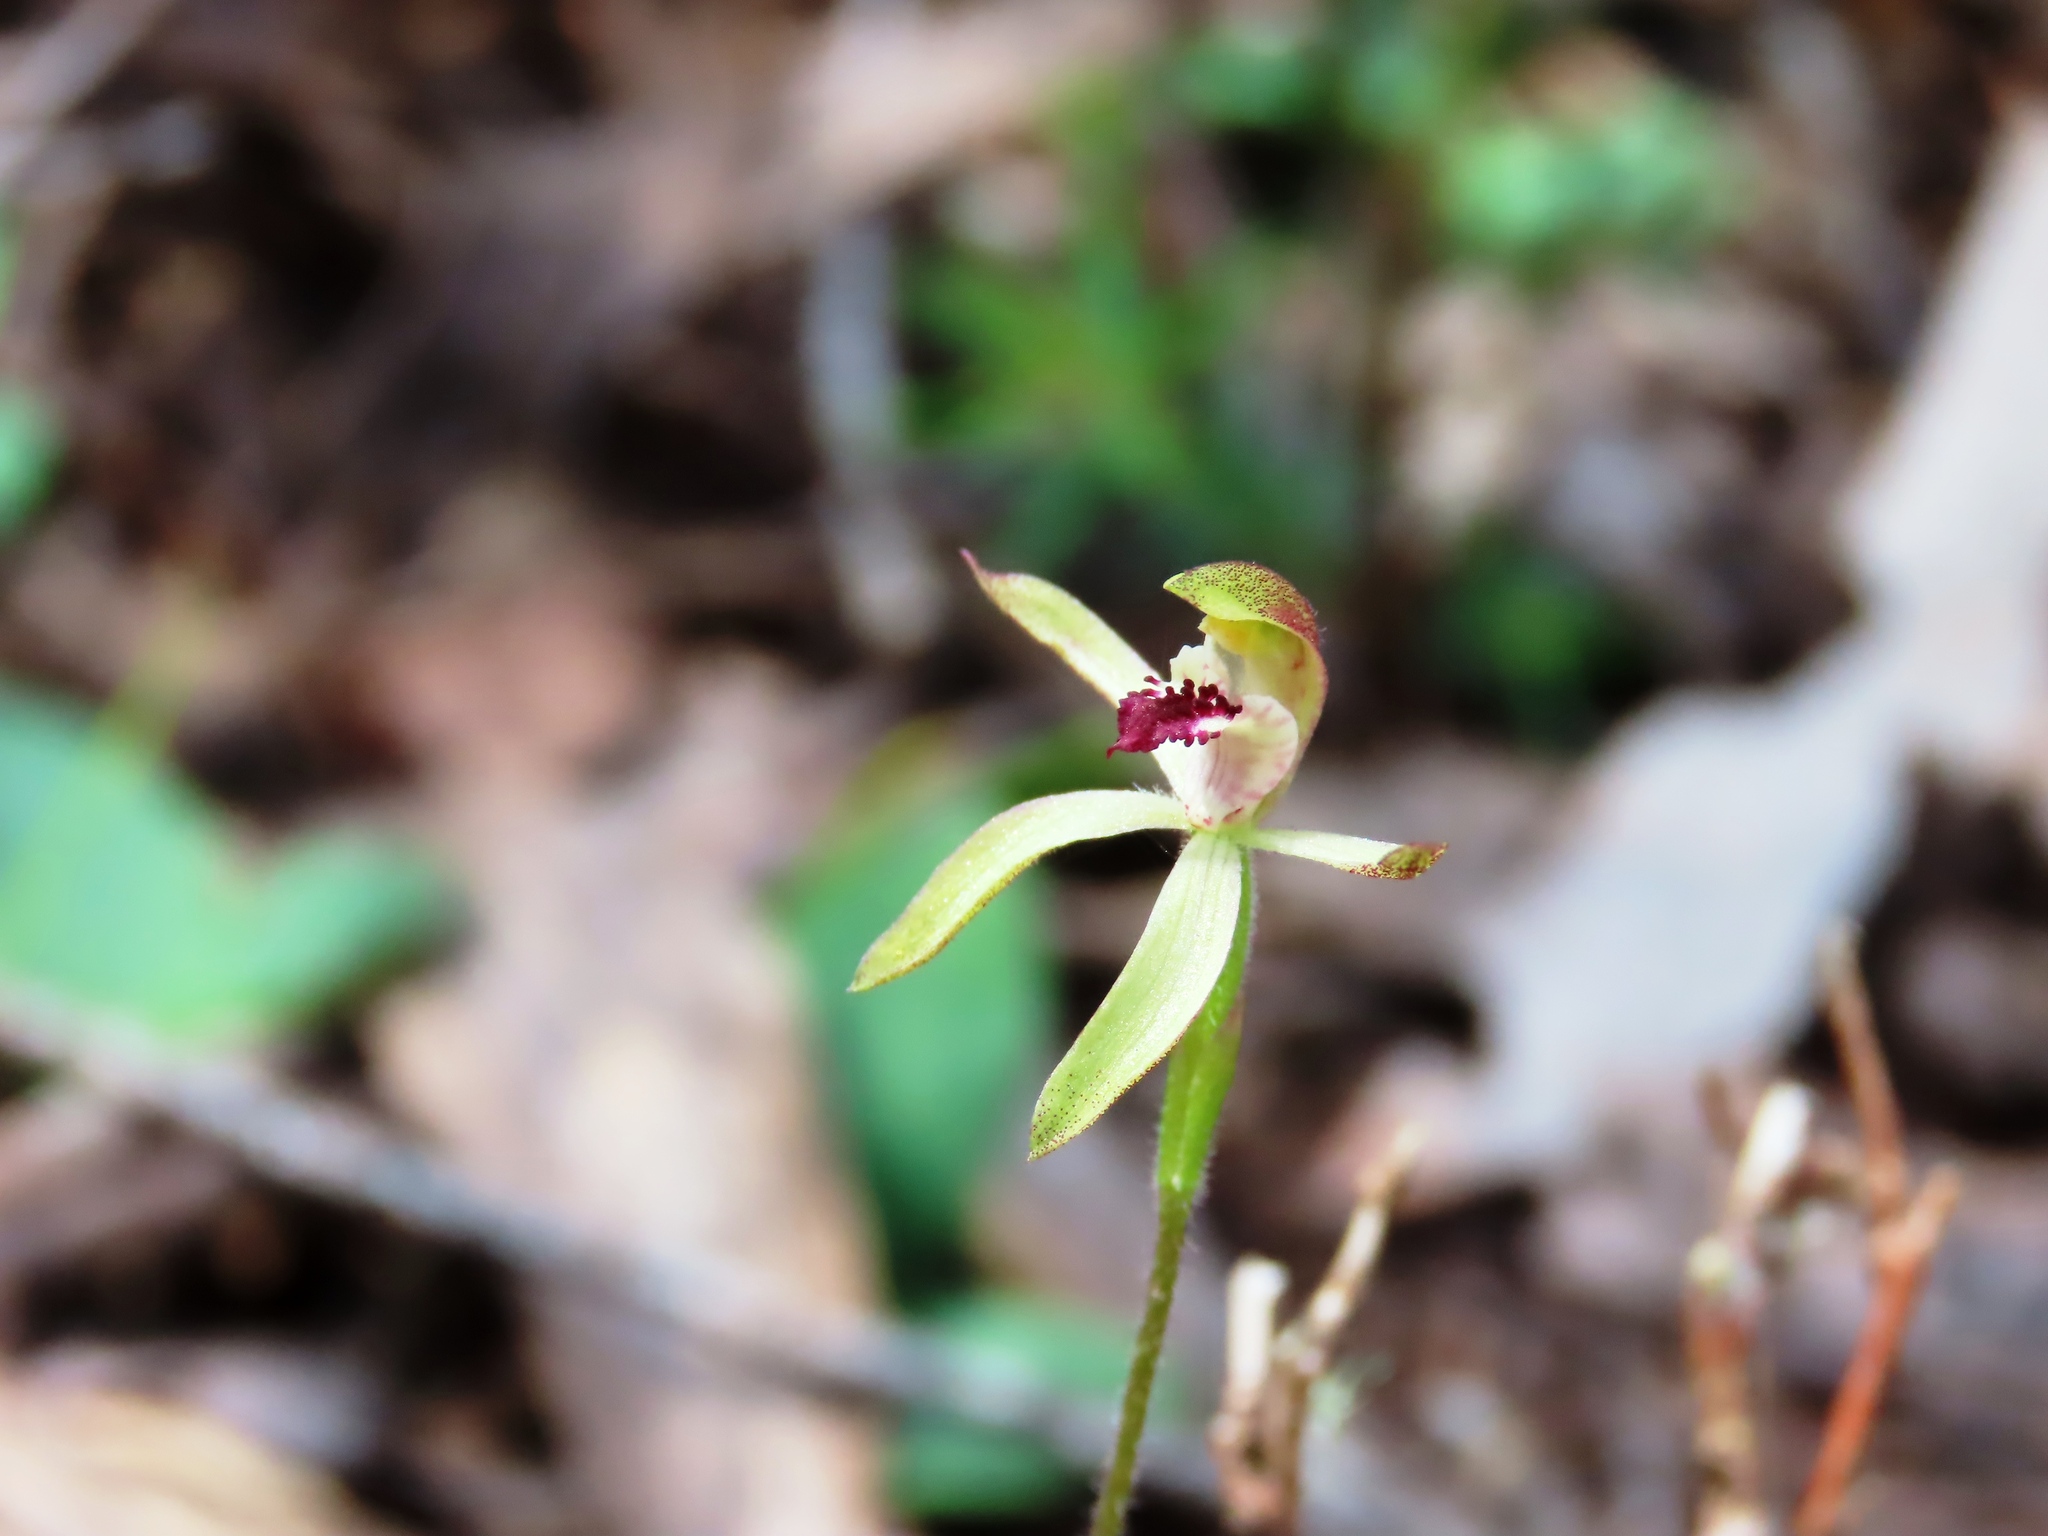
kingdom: Plantae
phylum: Tracheophyta
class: Liliopsida
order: Asparagales
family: Orchidaceae
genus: Caladenia
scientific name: Caladenia transitoria
